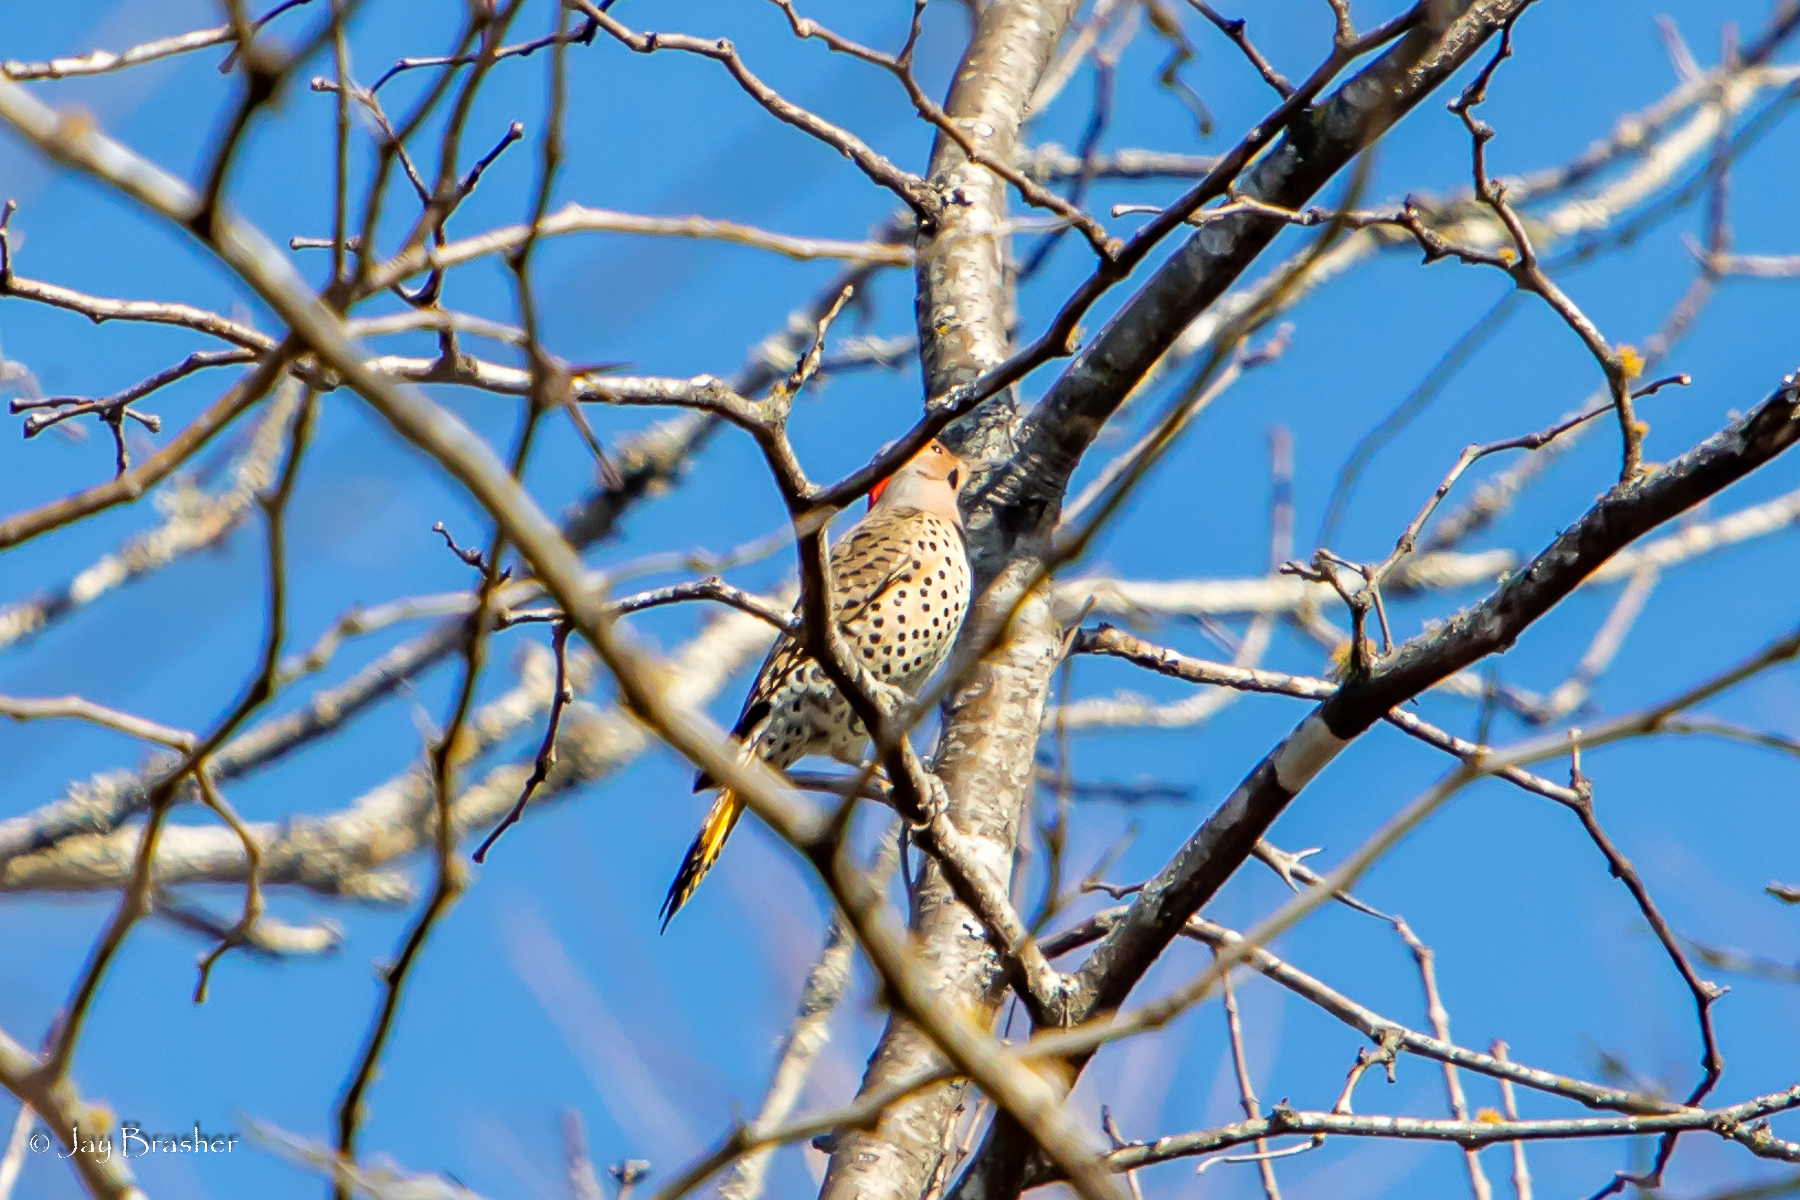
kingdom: Animalia
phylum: Chordata
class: Aves
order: Piciformes
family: Picidae
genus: Colaptes
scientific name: Colaptes auratus
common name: Northern flicker
